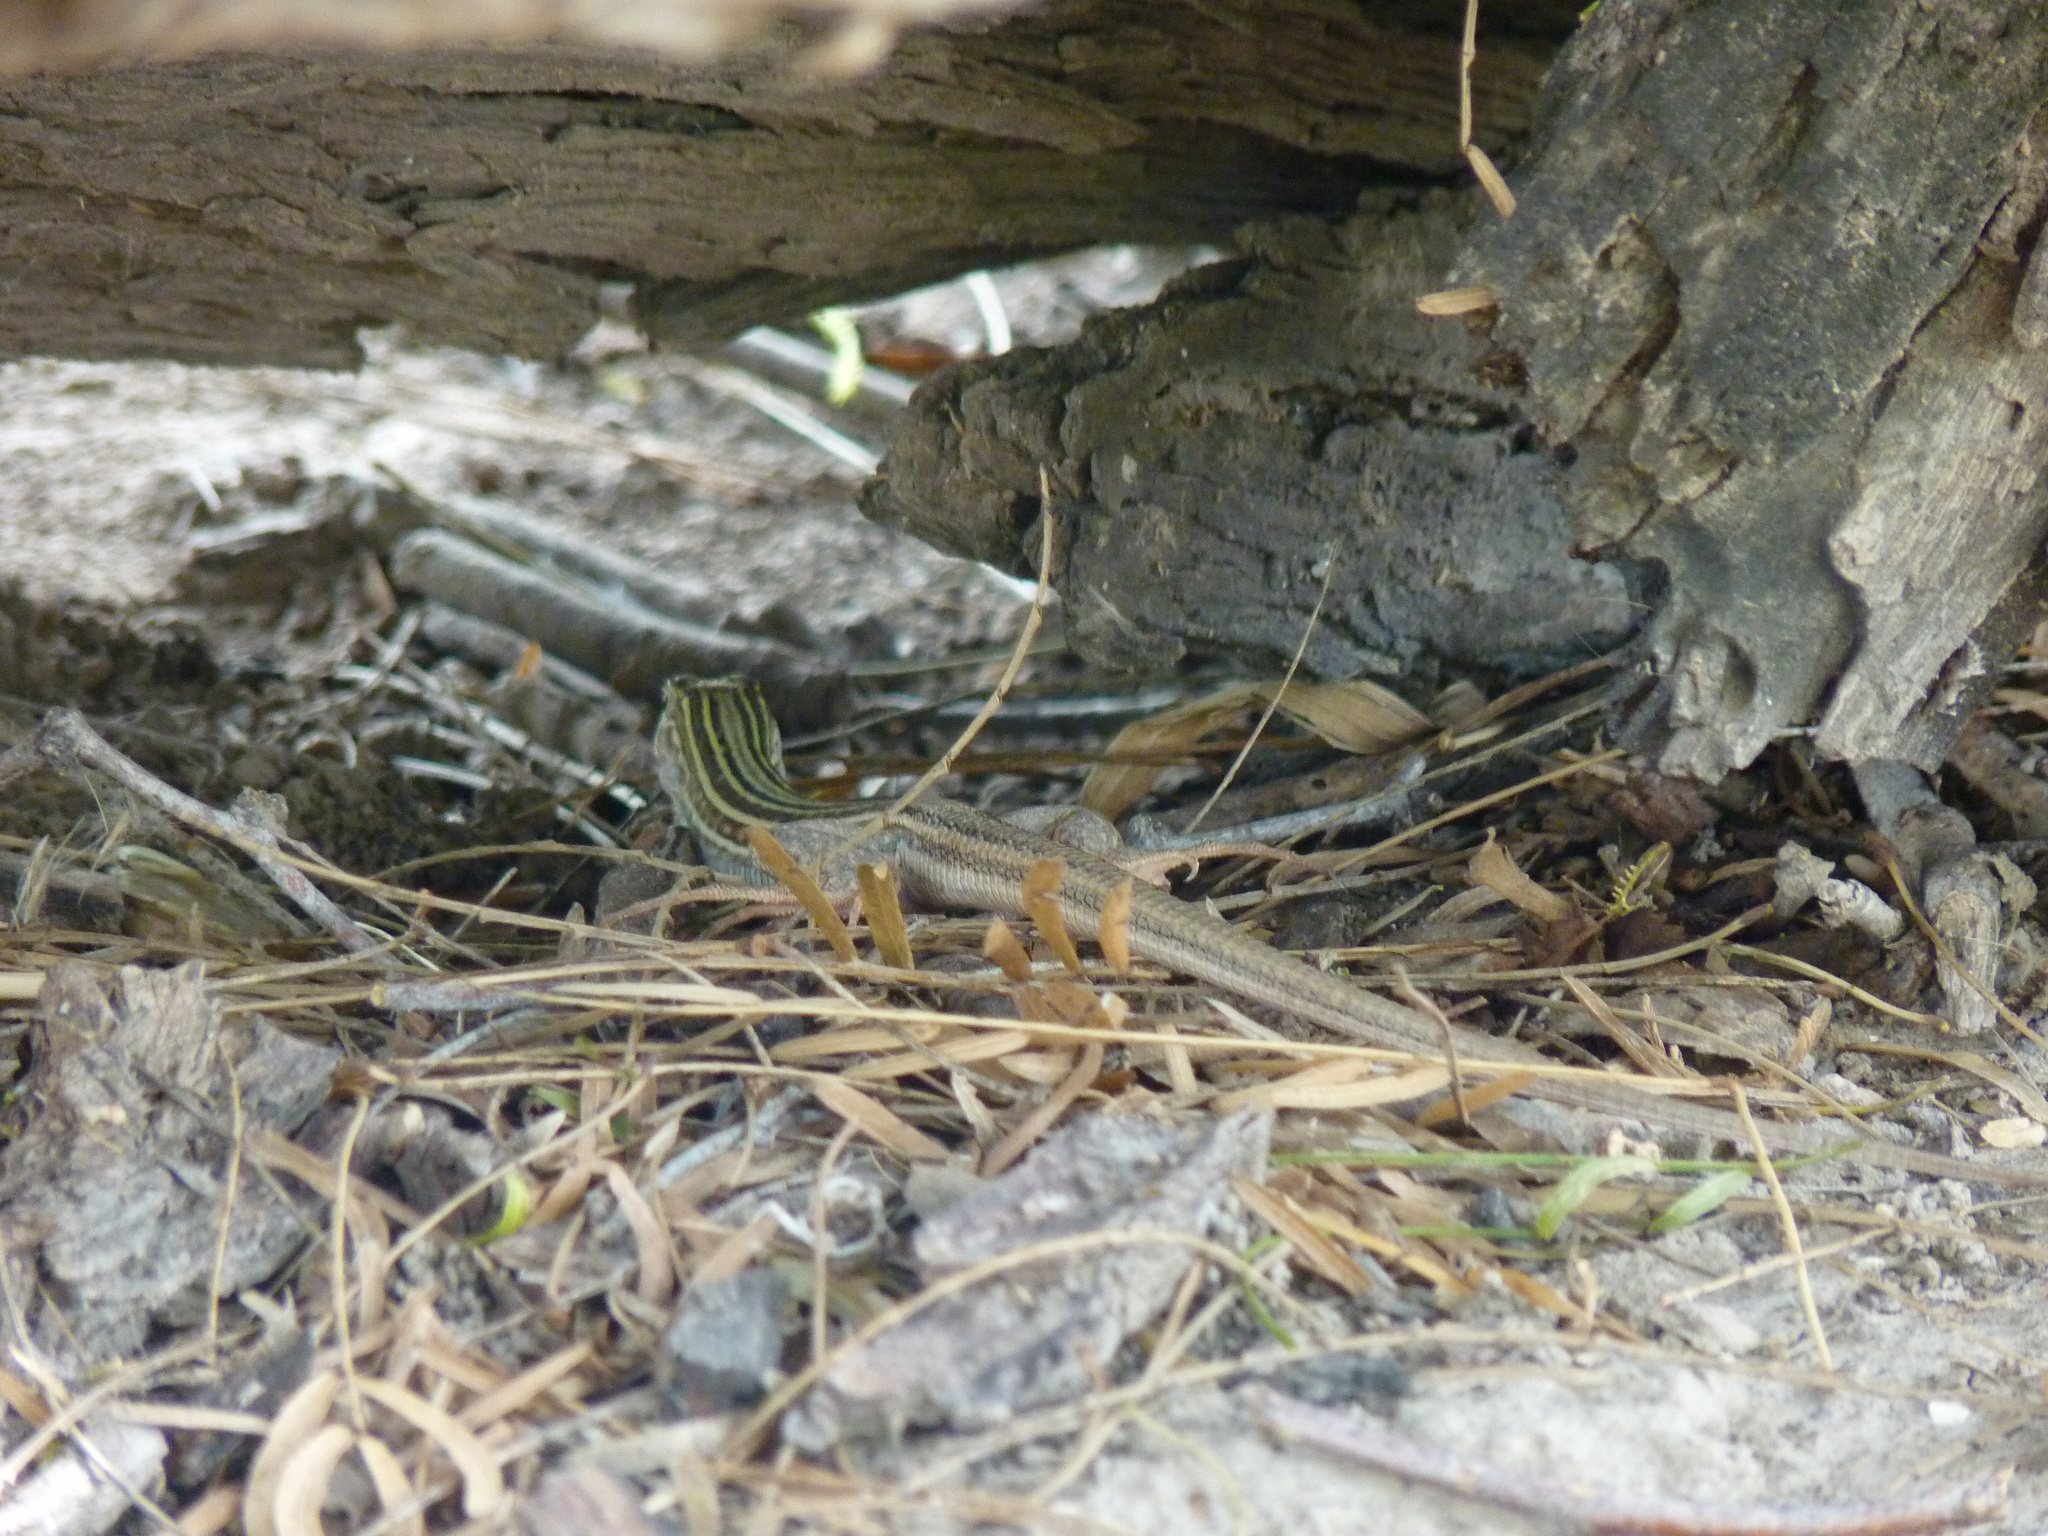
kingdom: Animalia
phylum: Chordata
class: Squamata
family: Teiidae
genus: Aspidoscelis
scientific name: Aspidoscelis gularis
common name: Eastern spotted whiptail
